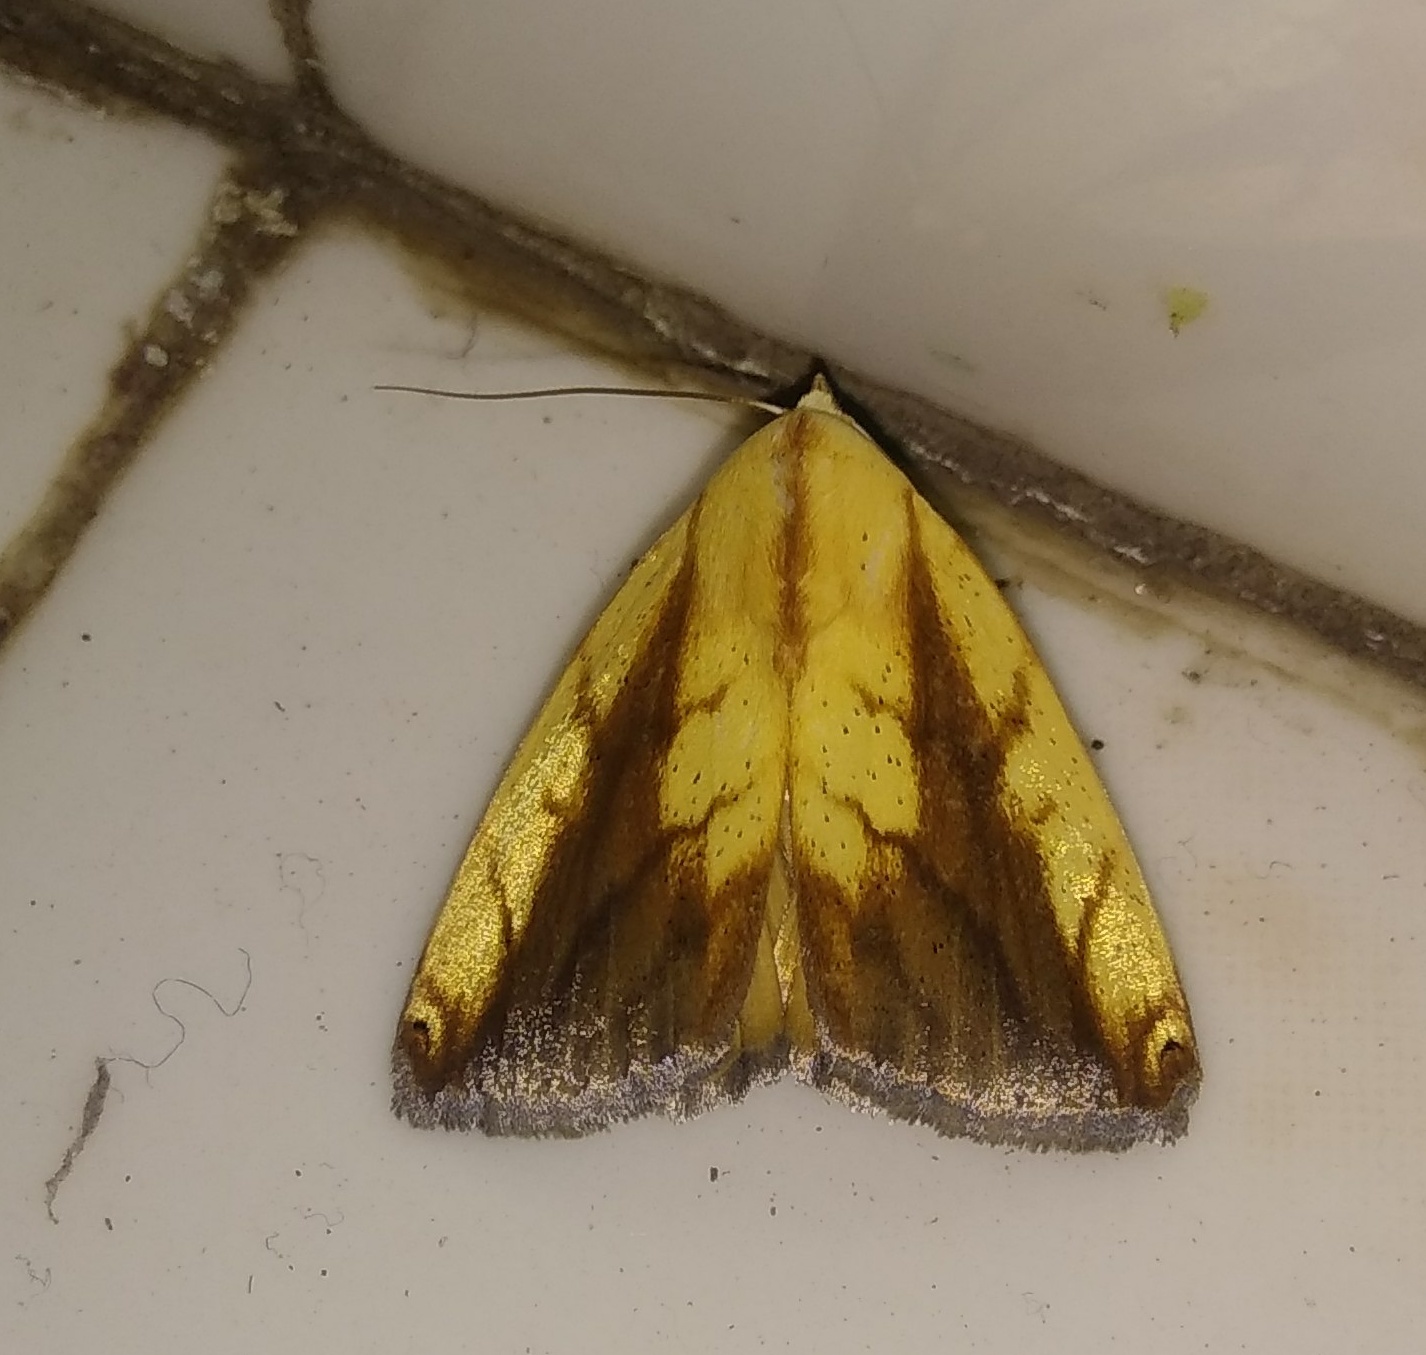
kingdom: Animalia
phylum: Arthropoda
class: Insecta
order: Lepidoptera
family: Nolidae
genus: Xanthodes
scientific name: Xanthodes intersepta
